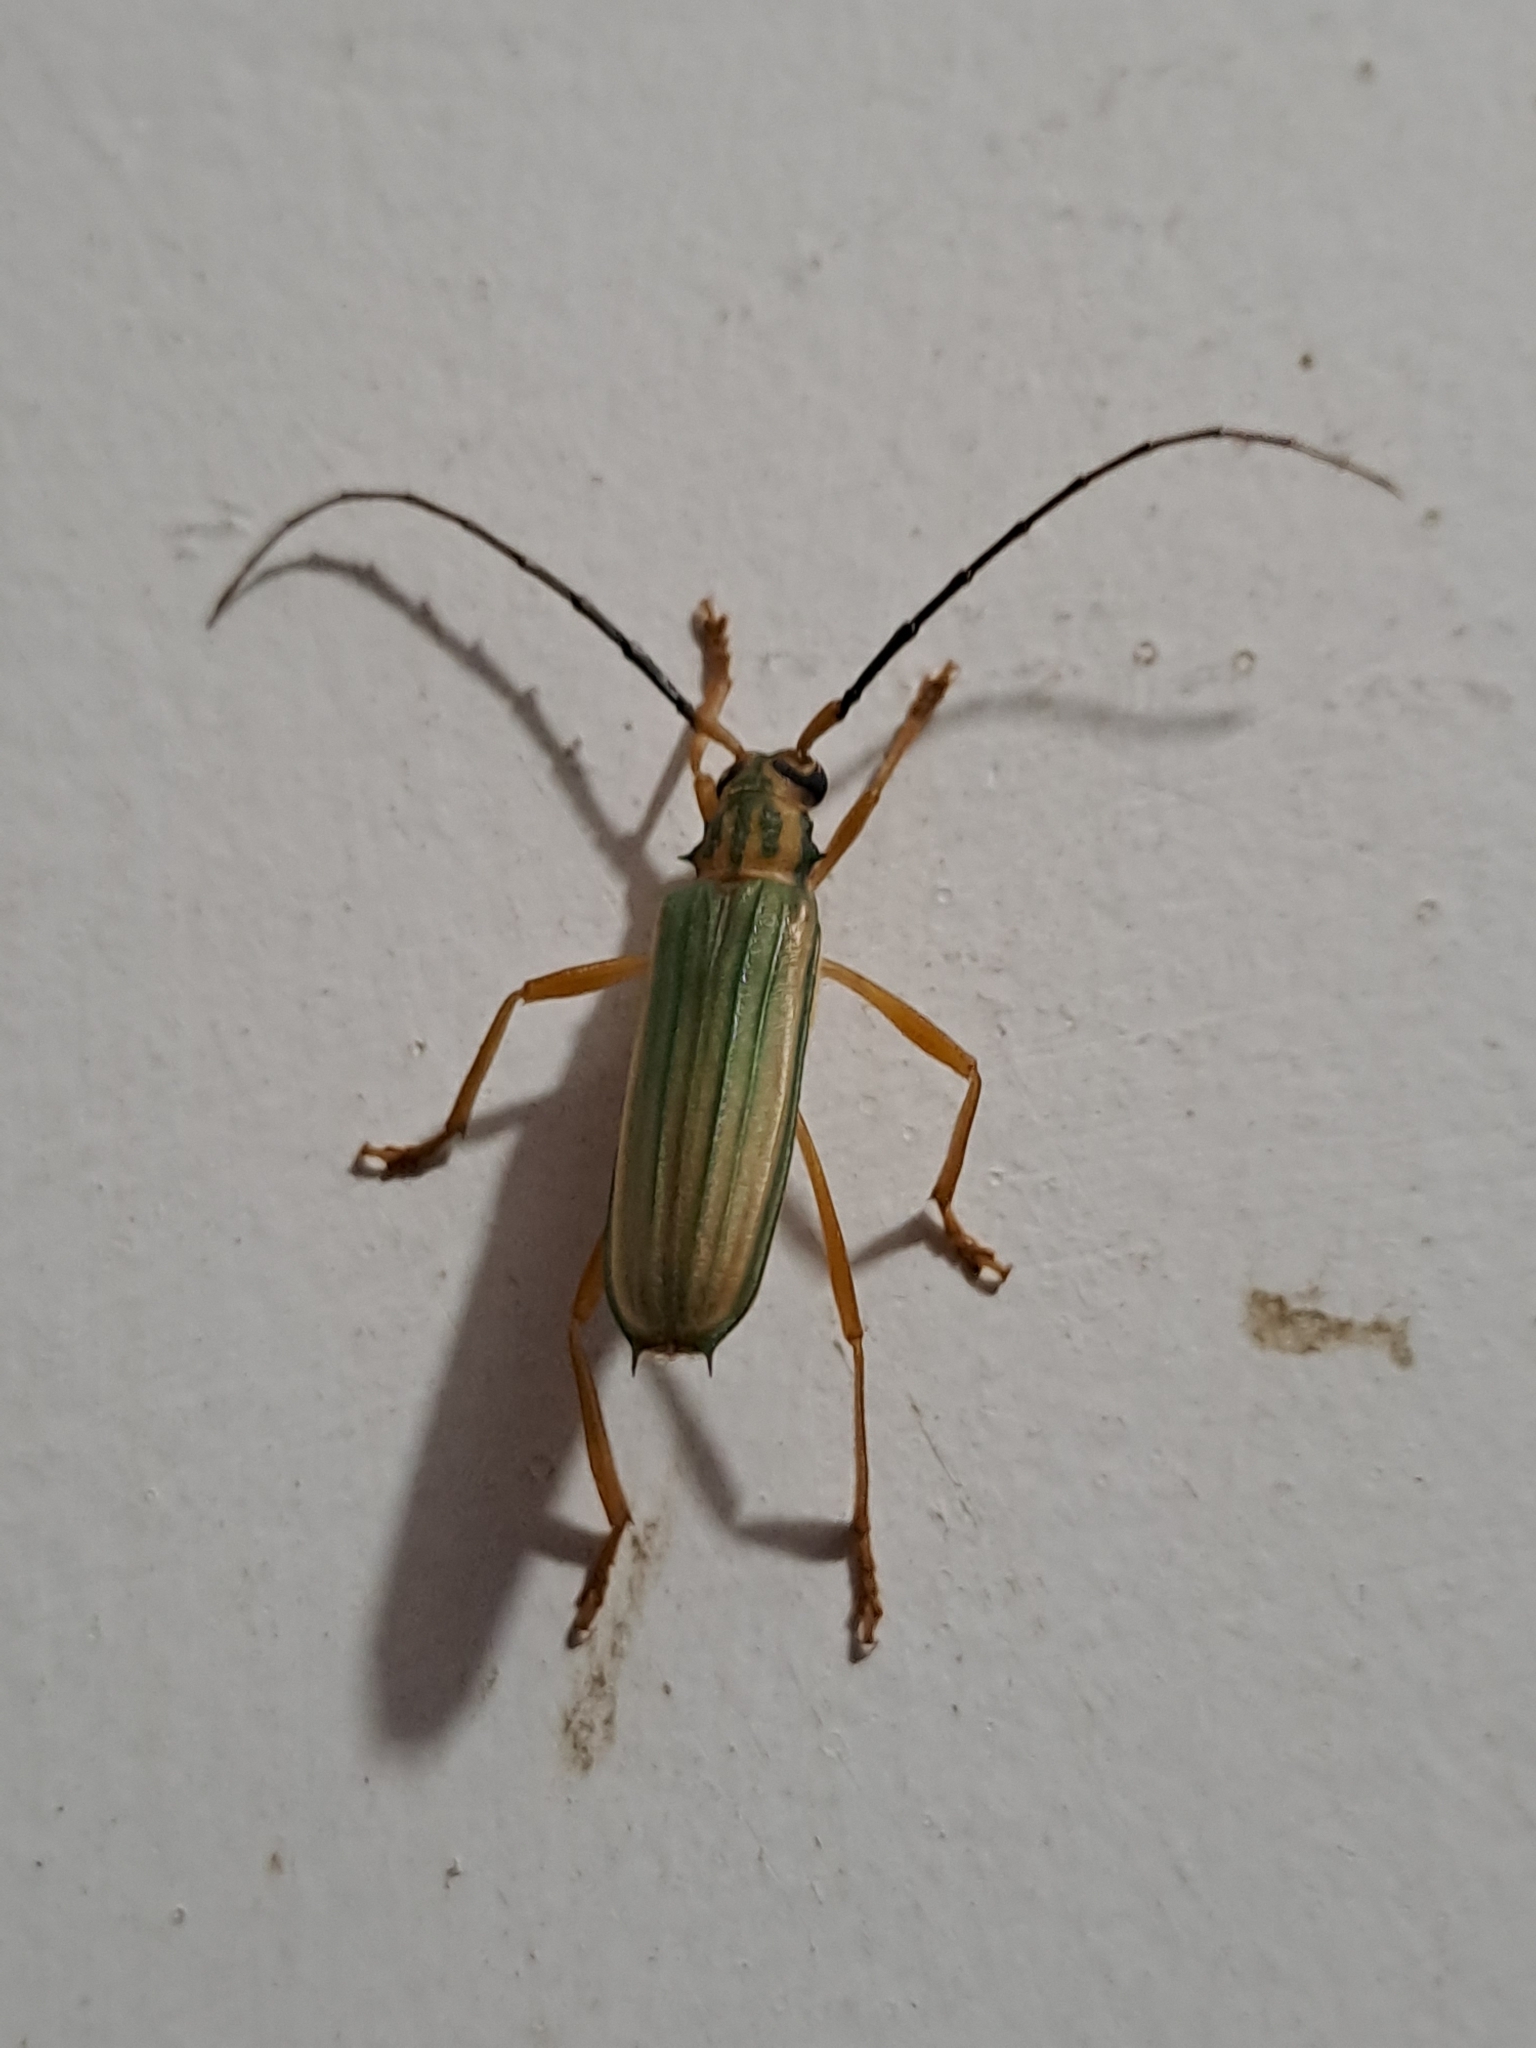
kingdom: Animalia
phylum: Arthropoda
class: Insecta
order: Coleoptera
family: Cerambycidae
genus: Chlorida
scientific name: Chlorida festiva
